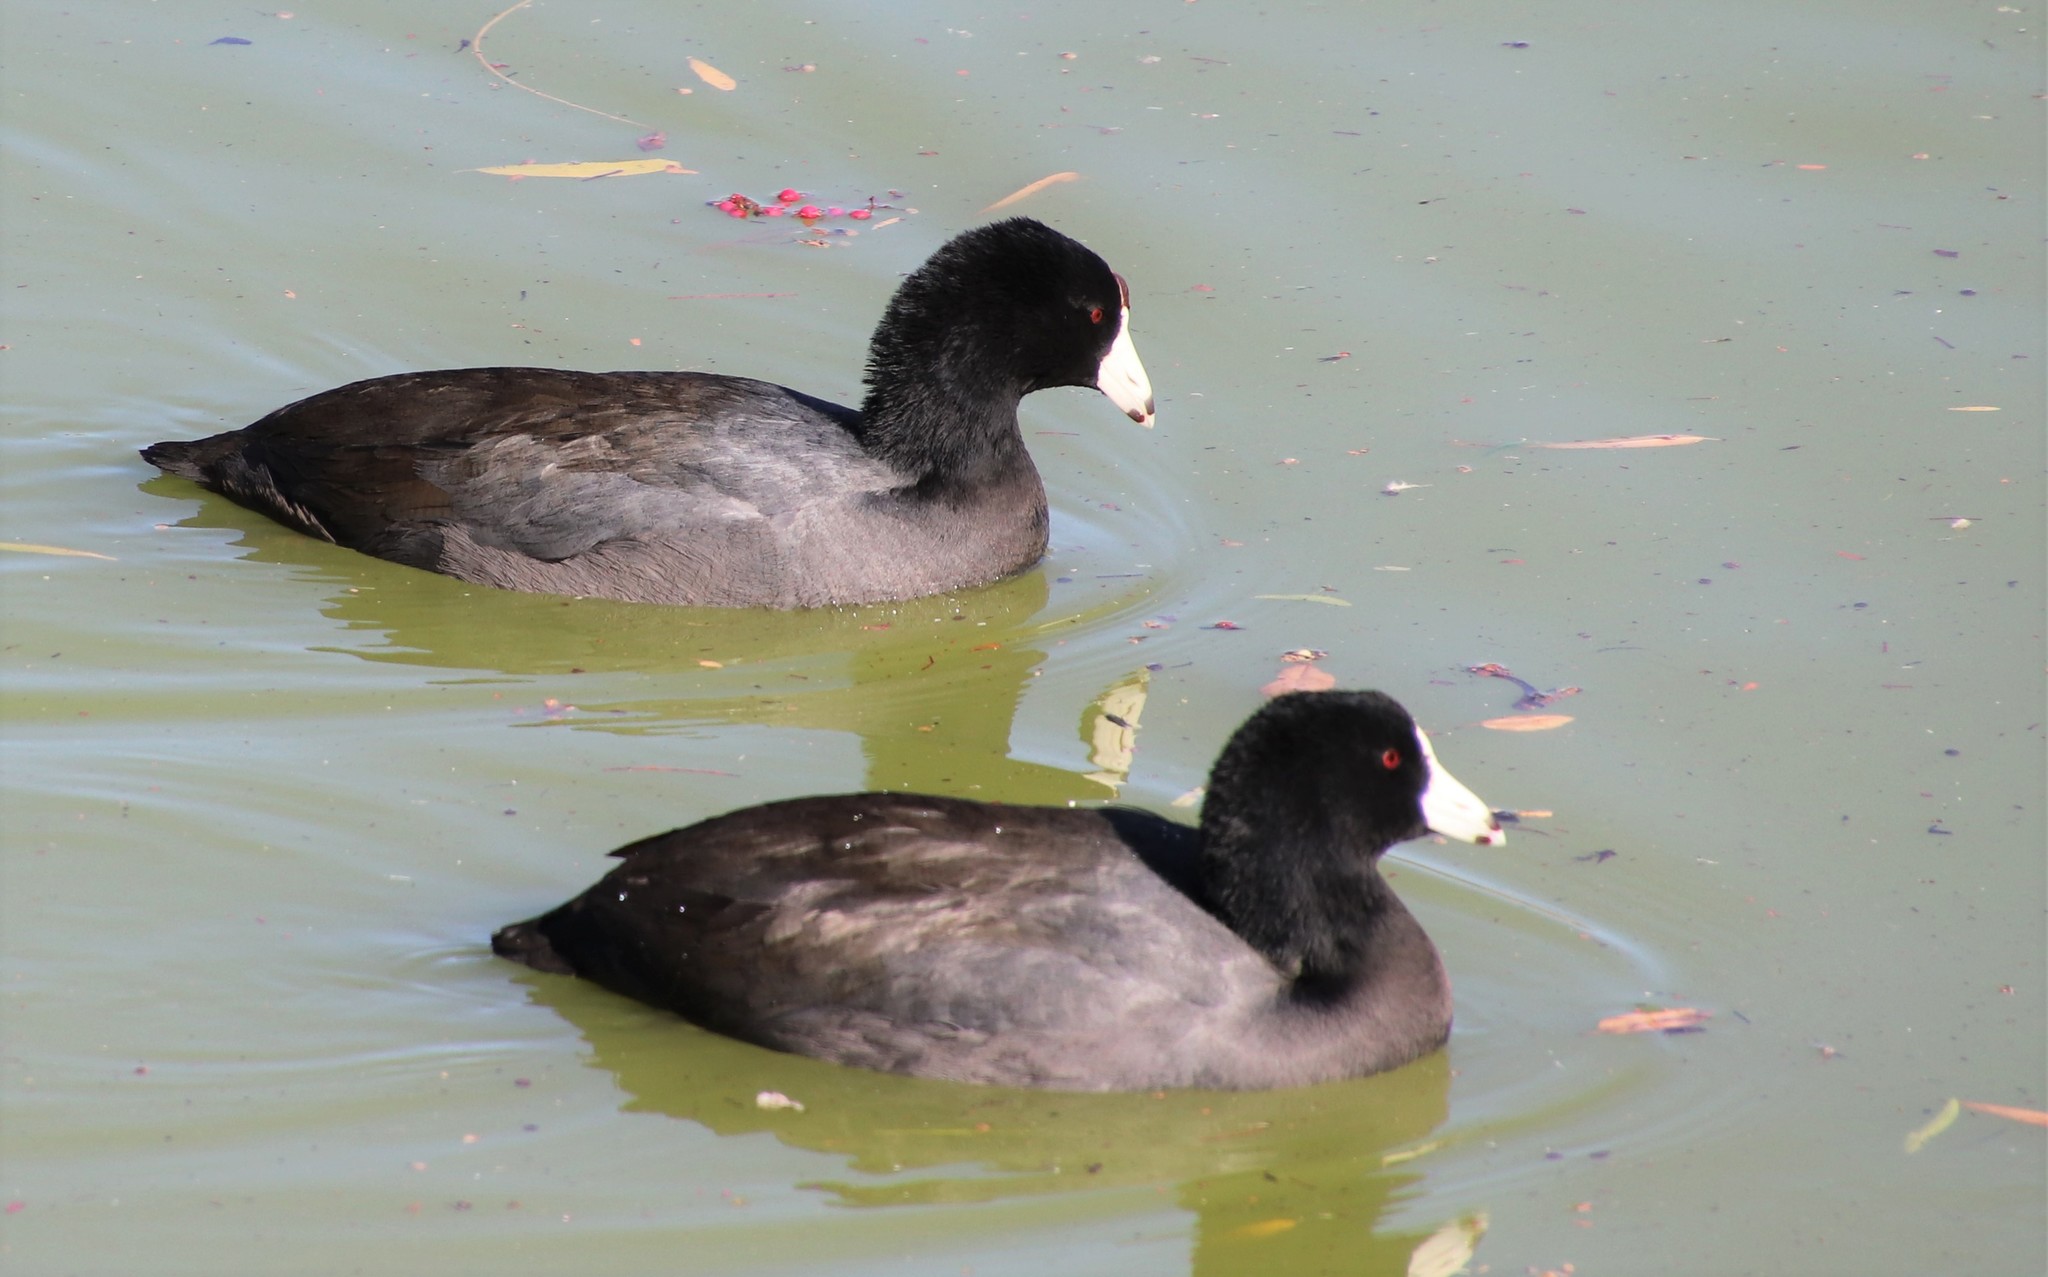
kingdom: Animalia
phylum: Chordata
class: Aves
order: Gruiformes
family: Rallidae
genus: Fulica
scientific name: Fulica americana
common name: American coot
